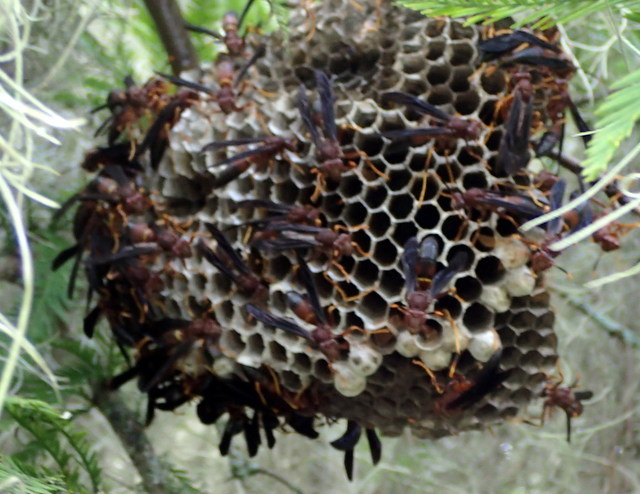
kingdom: Animalia
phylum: Arthropoda
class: Insecta
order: Hymenoptera
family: Eumenidae
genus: Polistes
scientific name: Polistes annularis
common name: Ringed paper wasp
